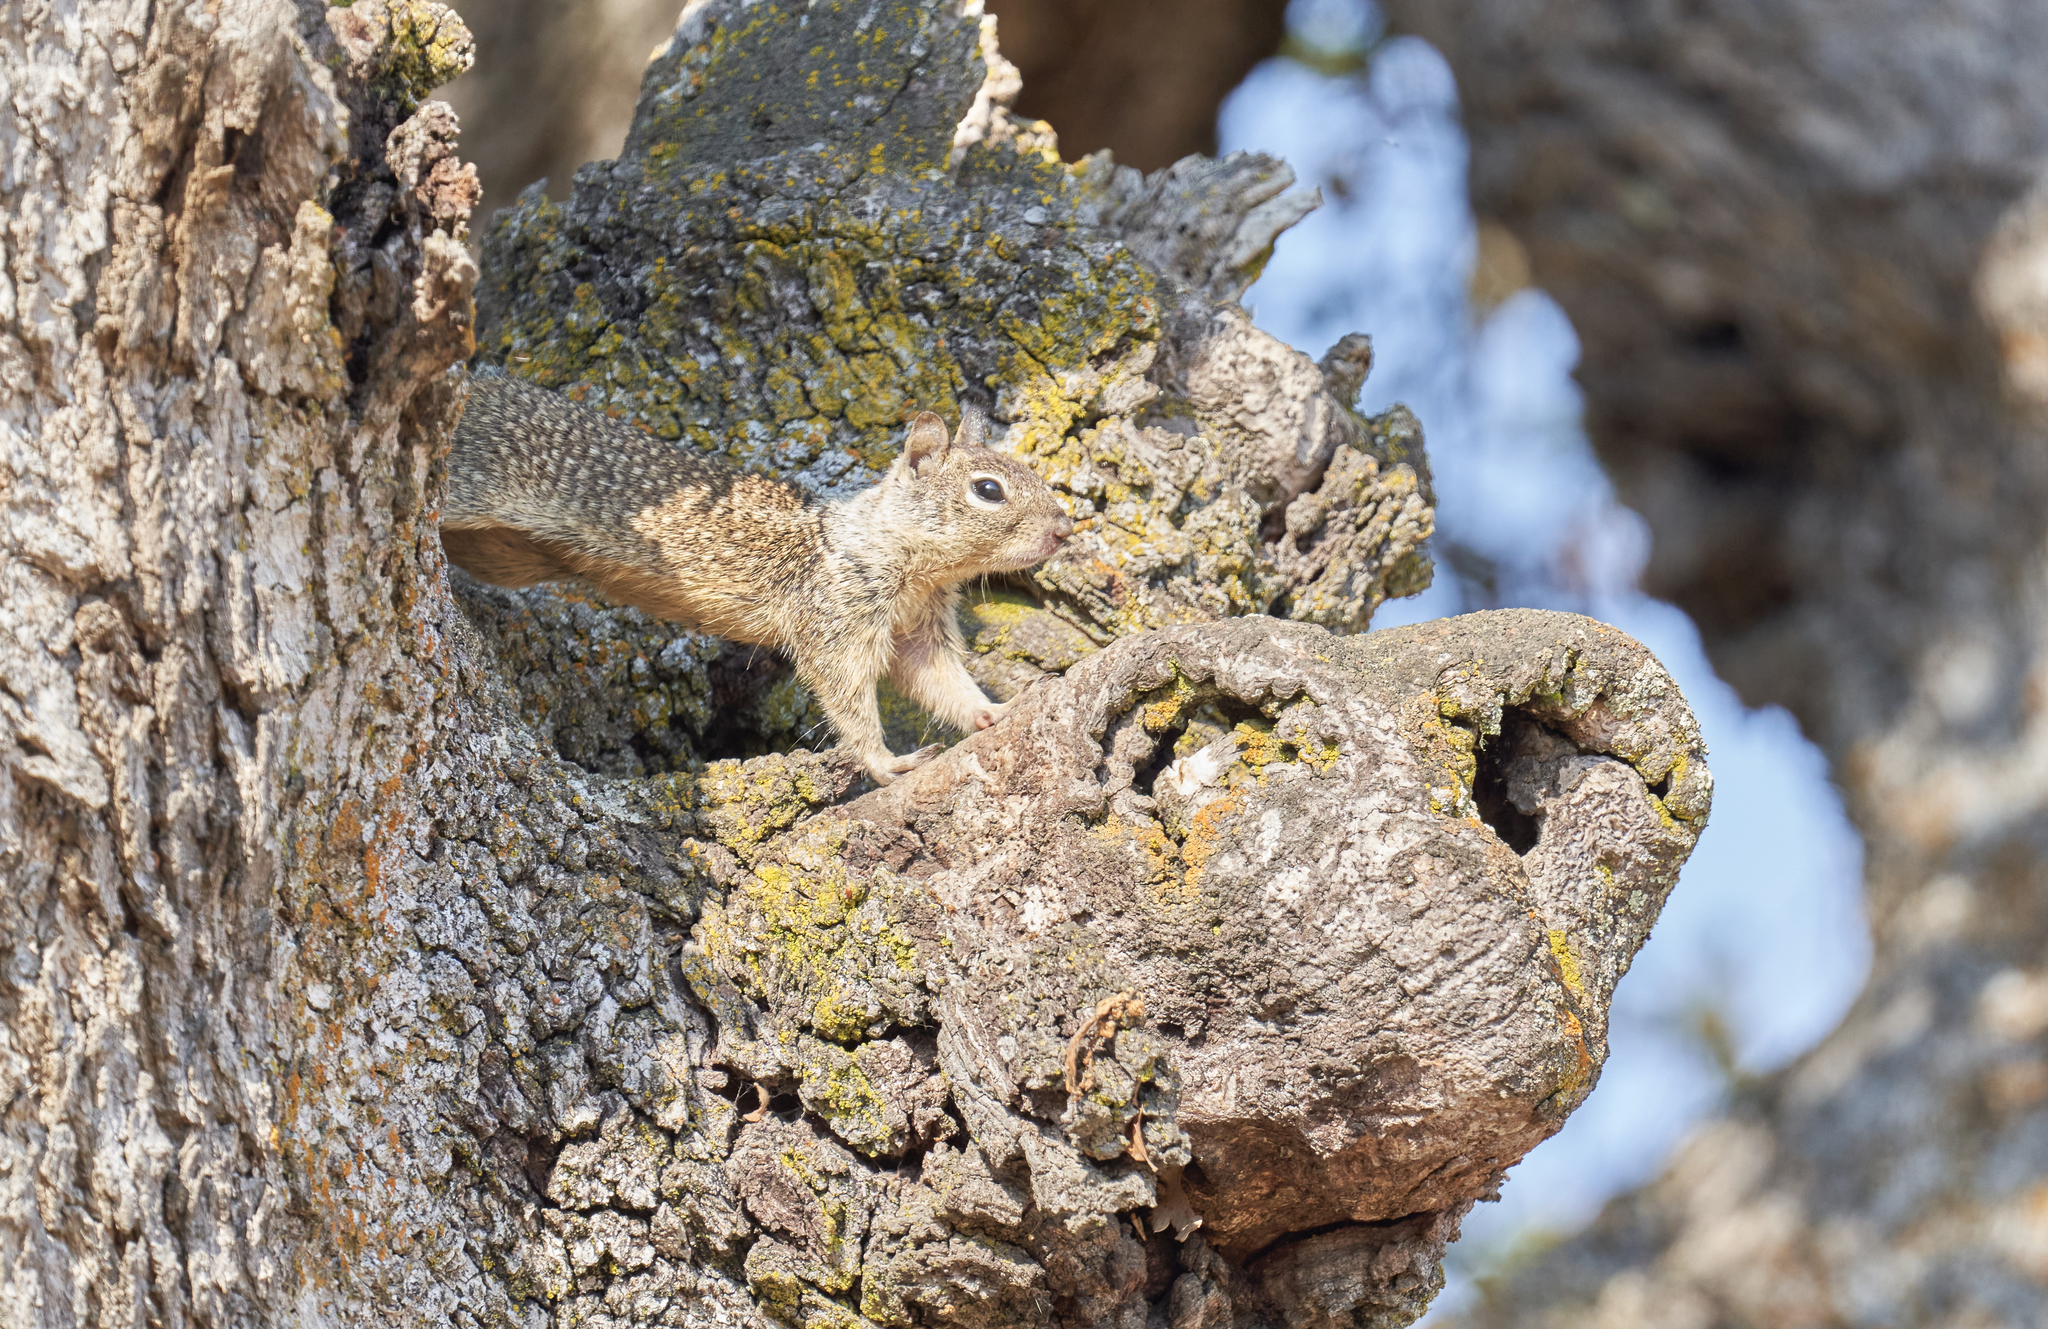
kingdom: Animalia
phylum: Chordata
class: Mammalia
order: Rodentia
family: Sciuridae
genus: Otospermophilus
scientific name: Otospermophilus beecheyi
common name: California ground squirrel
